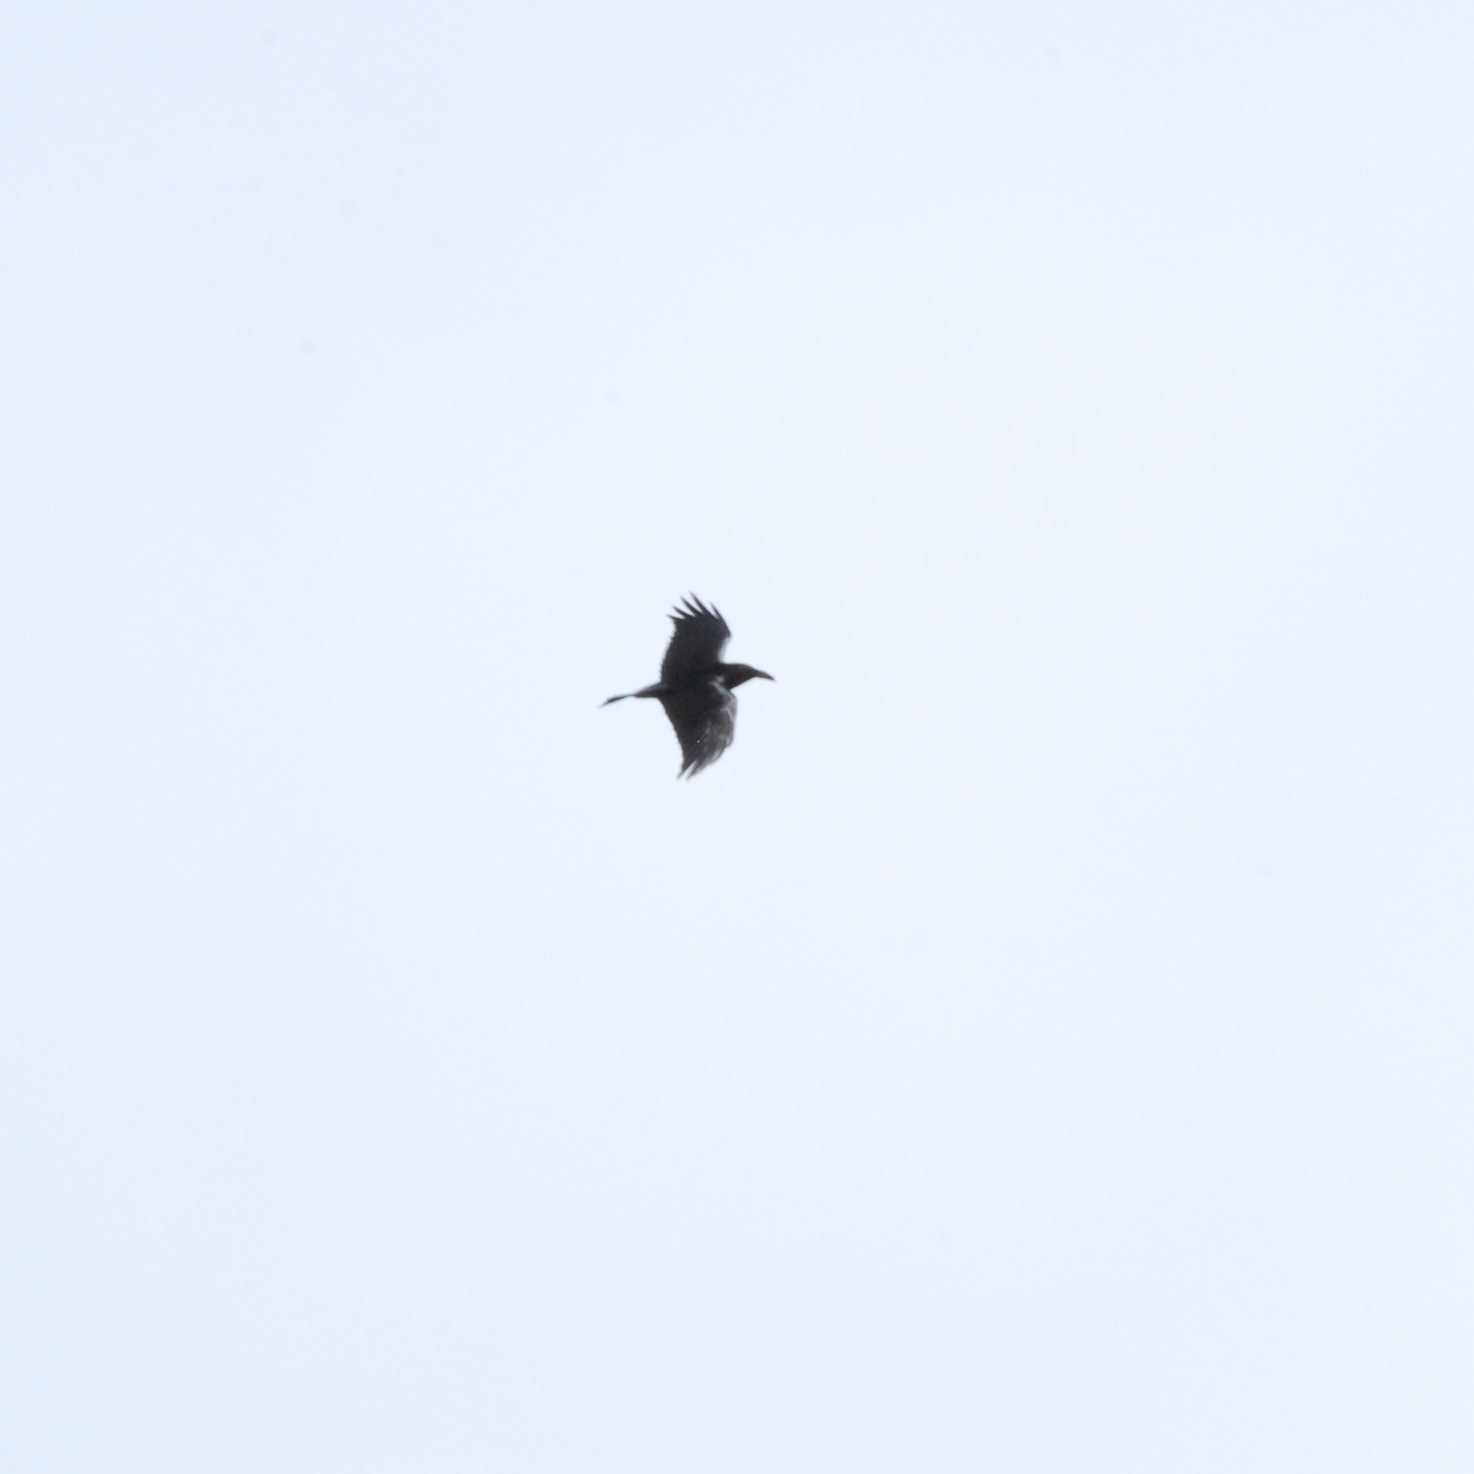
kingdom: Animalia
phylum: Chordata
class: Aves
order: Passeriformes
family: Corvidae
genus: Corvus
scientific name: Corvus corax
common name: Common raven
